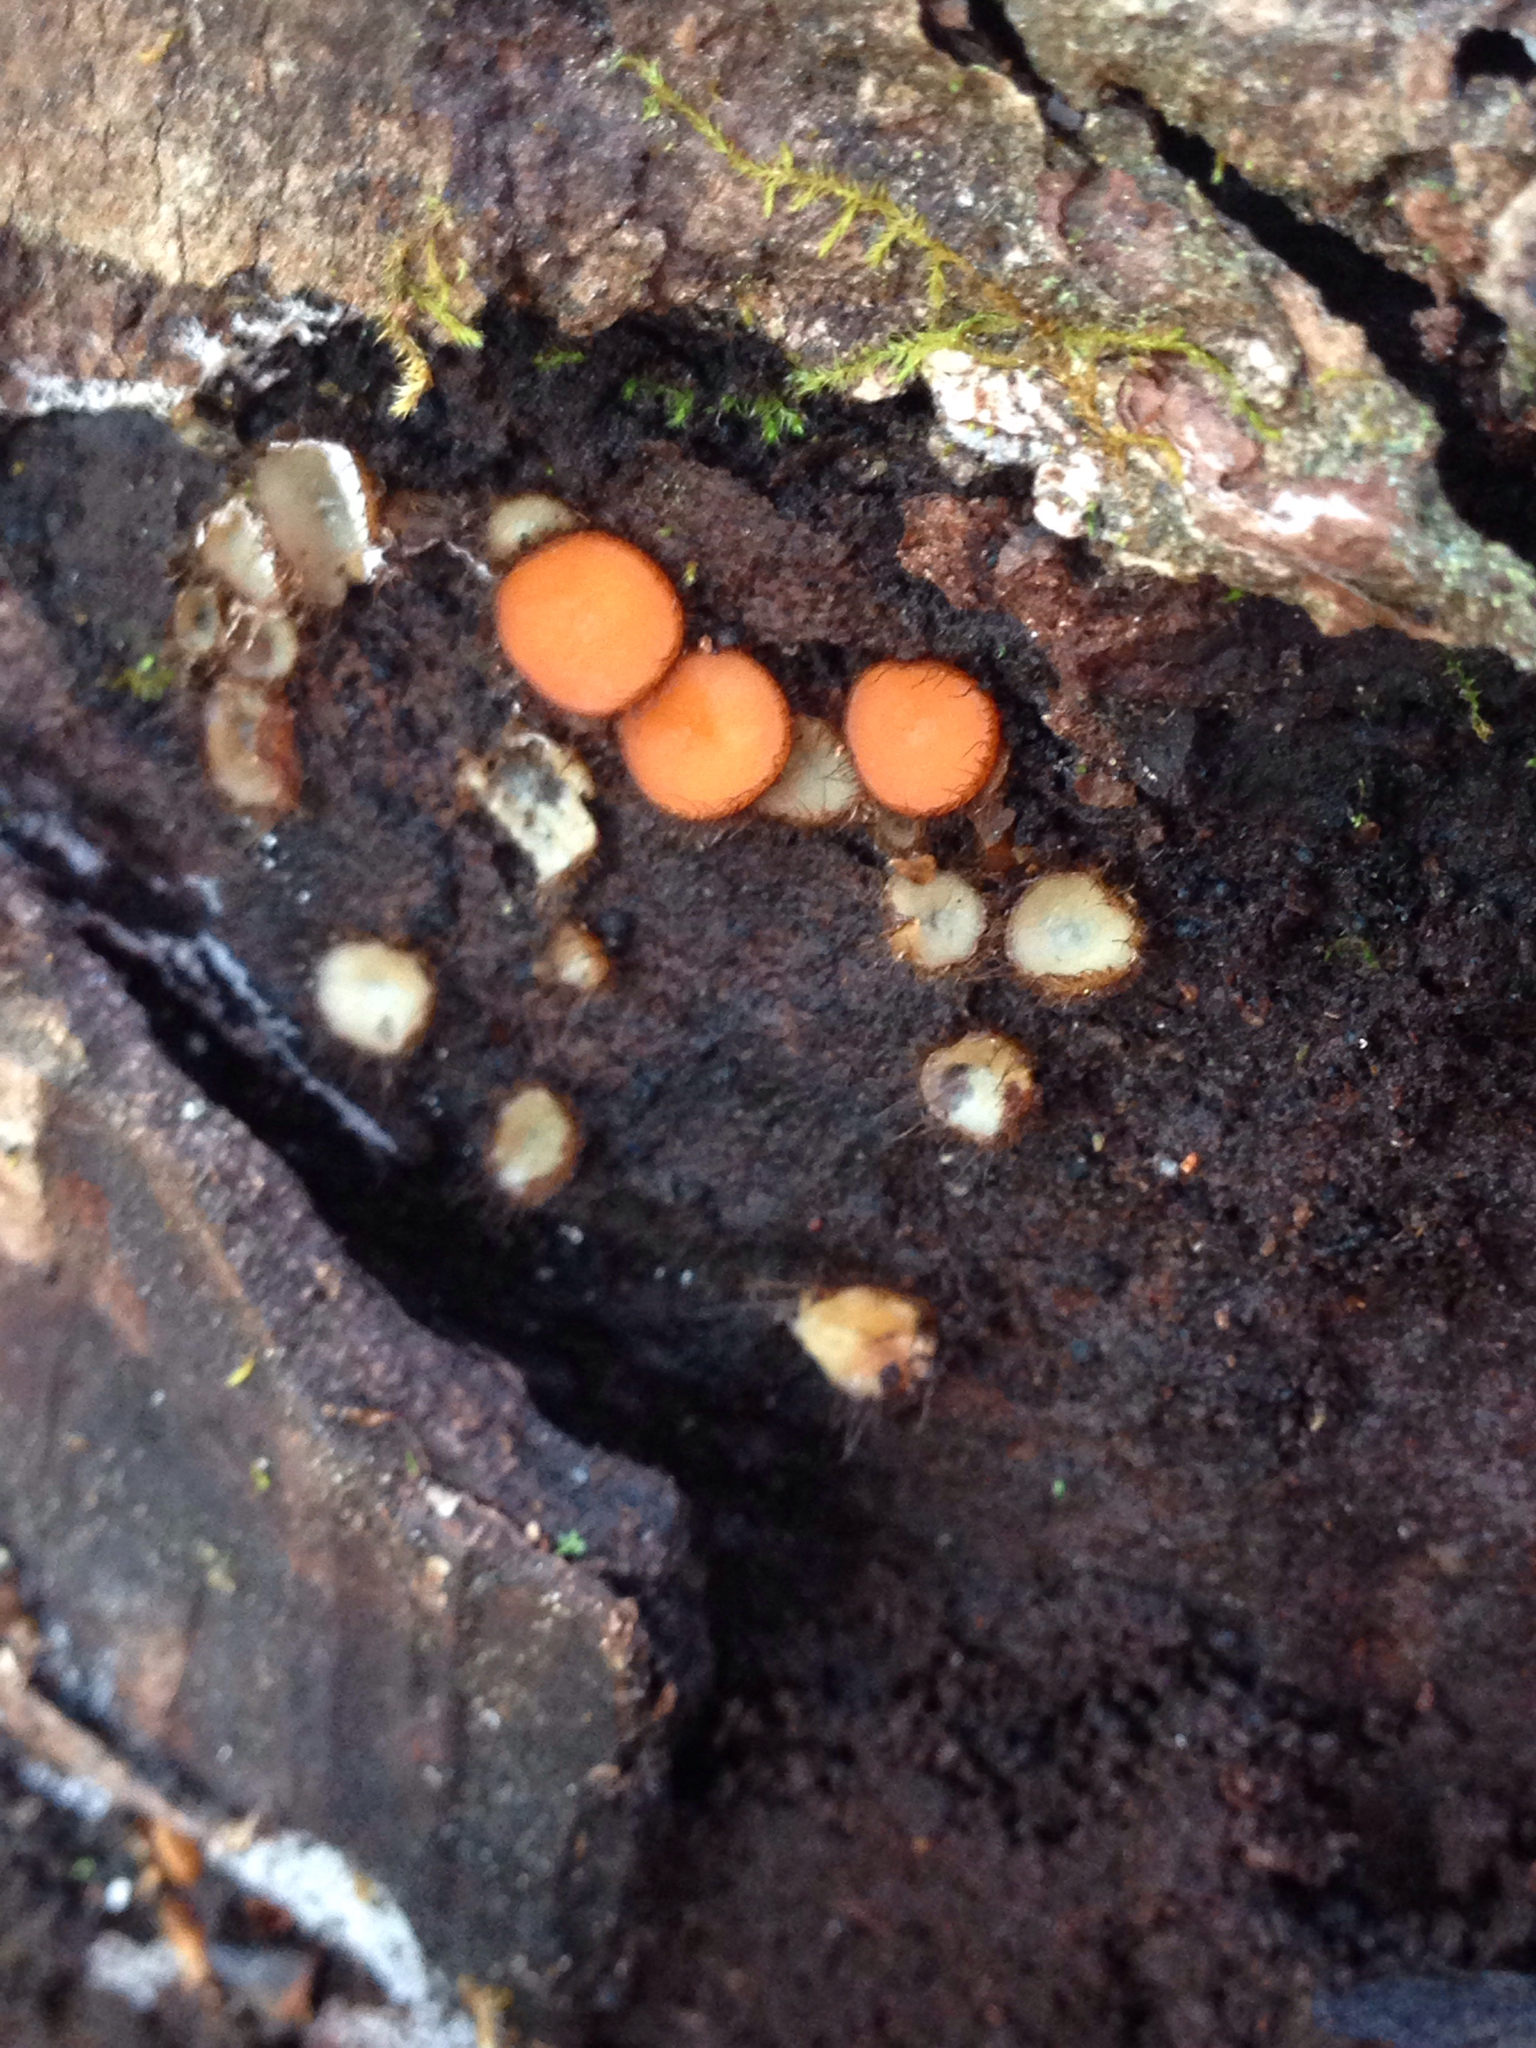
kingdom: Fungi
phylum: Ascomycota
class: Pezizomycetes
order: Pezizales
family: Pyronemataceae
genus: Scutellinia
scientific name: Scutellinia scutellata
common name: Common eyelash
